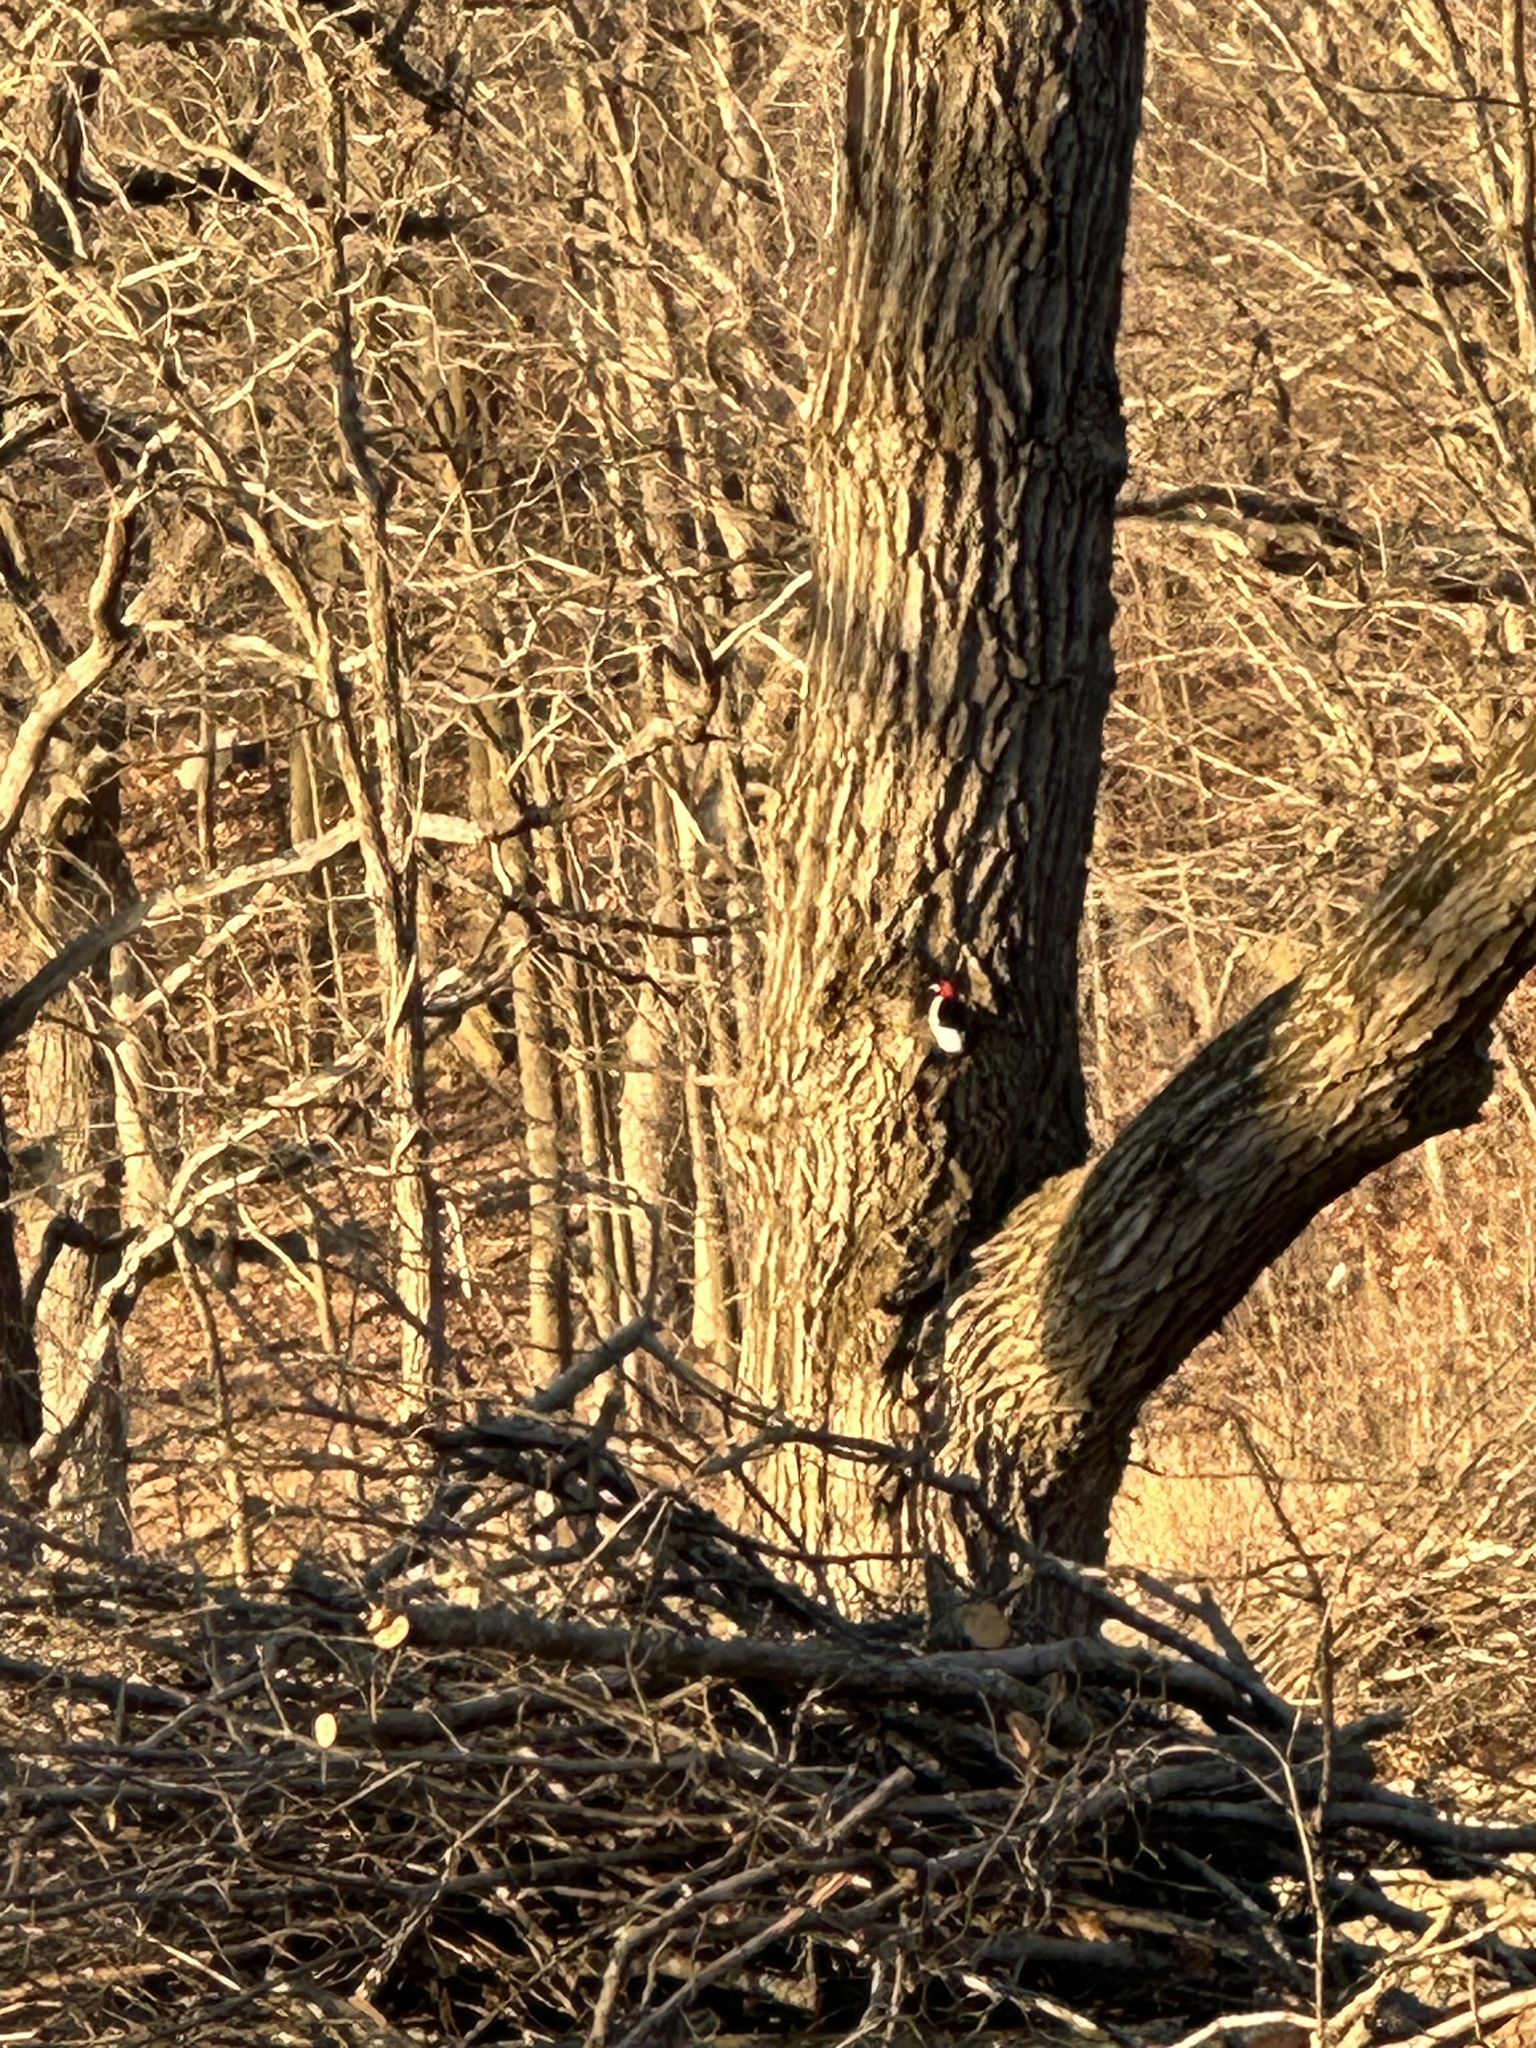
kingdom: Animalia
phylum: Chordata
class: Aves
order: Piciformes
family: Picidae
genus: Melanerpes
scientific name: Melanerpes erythrocephalus
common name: Red-headed woodpecker
